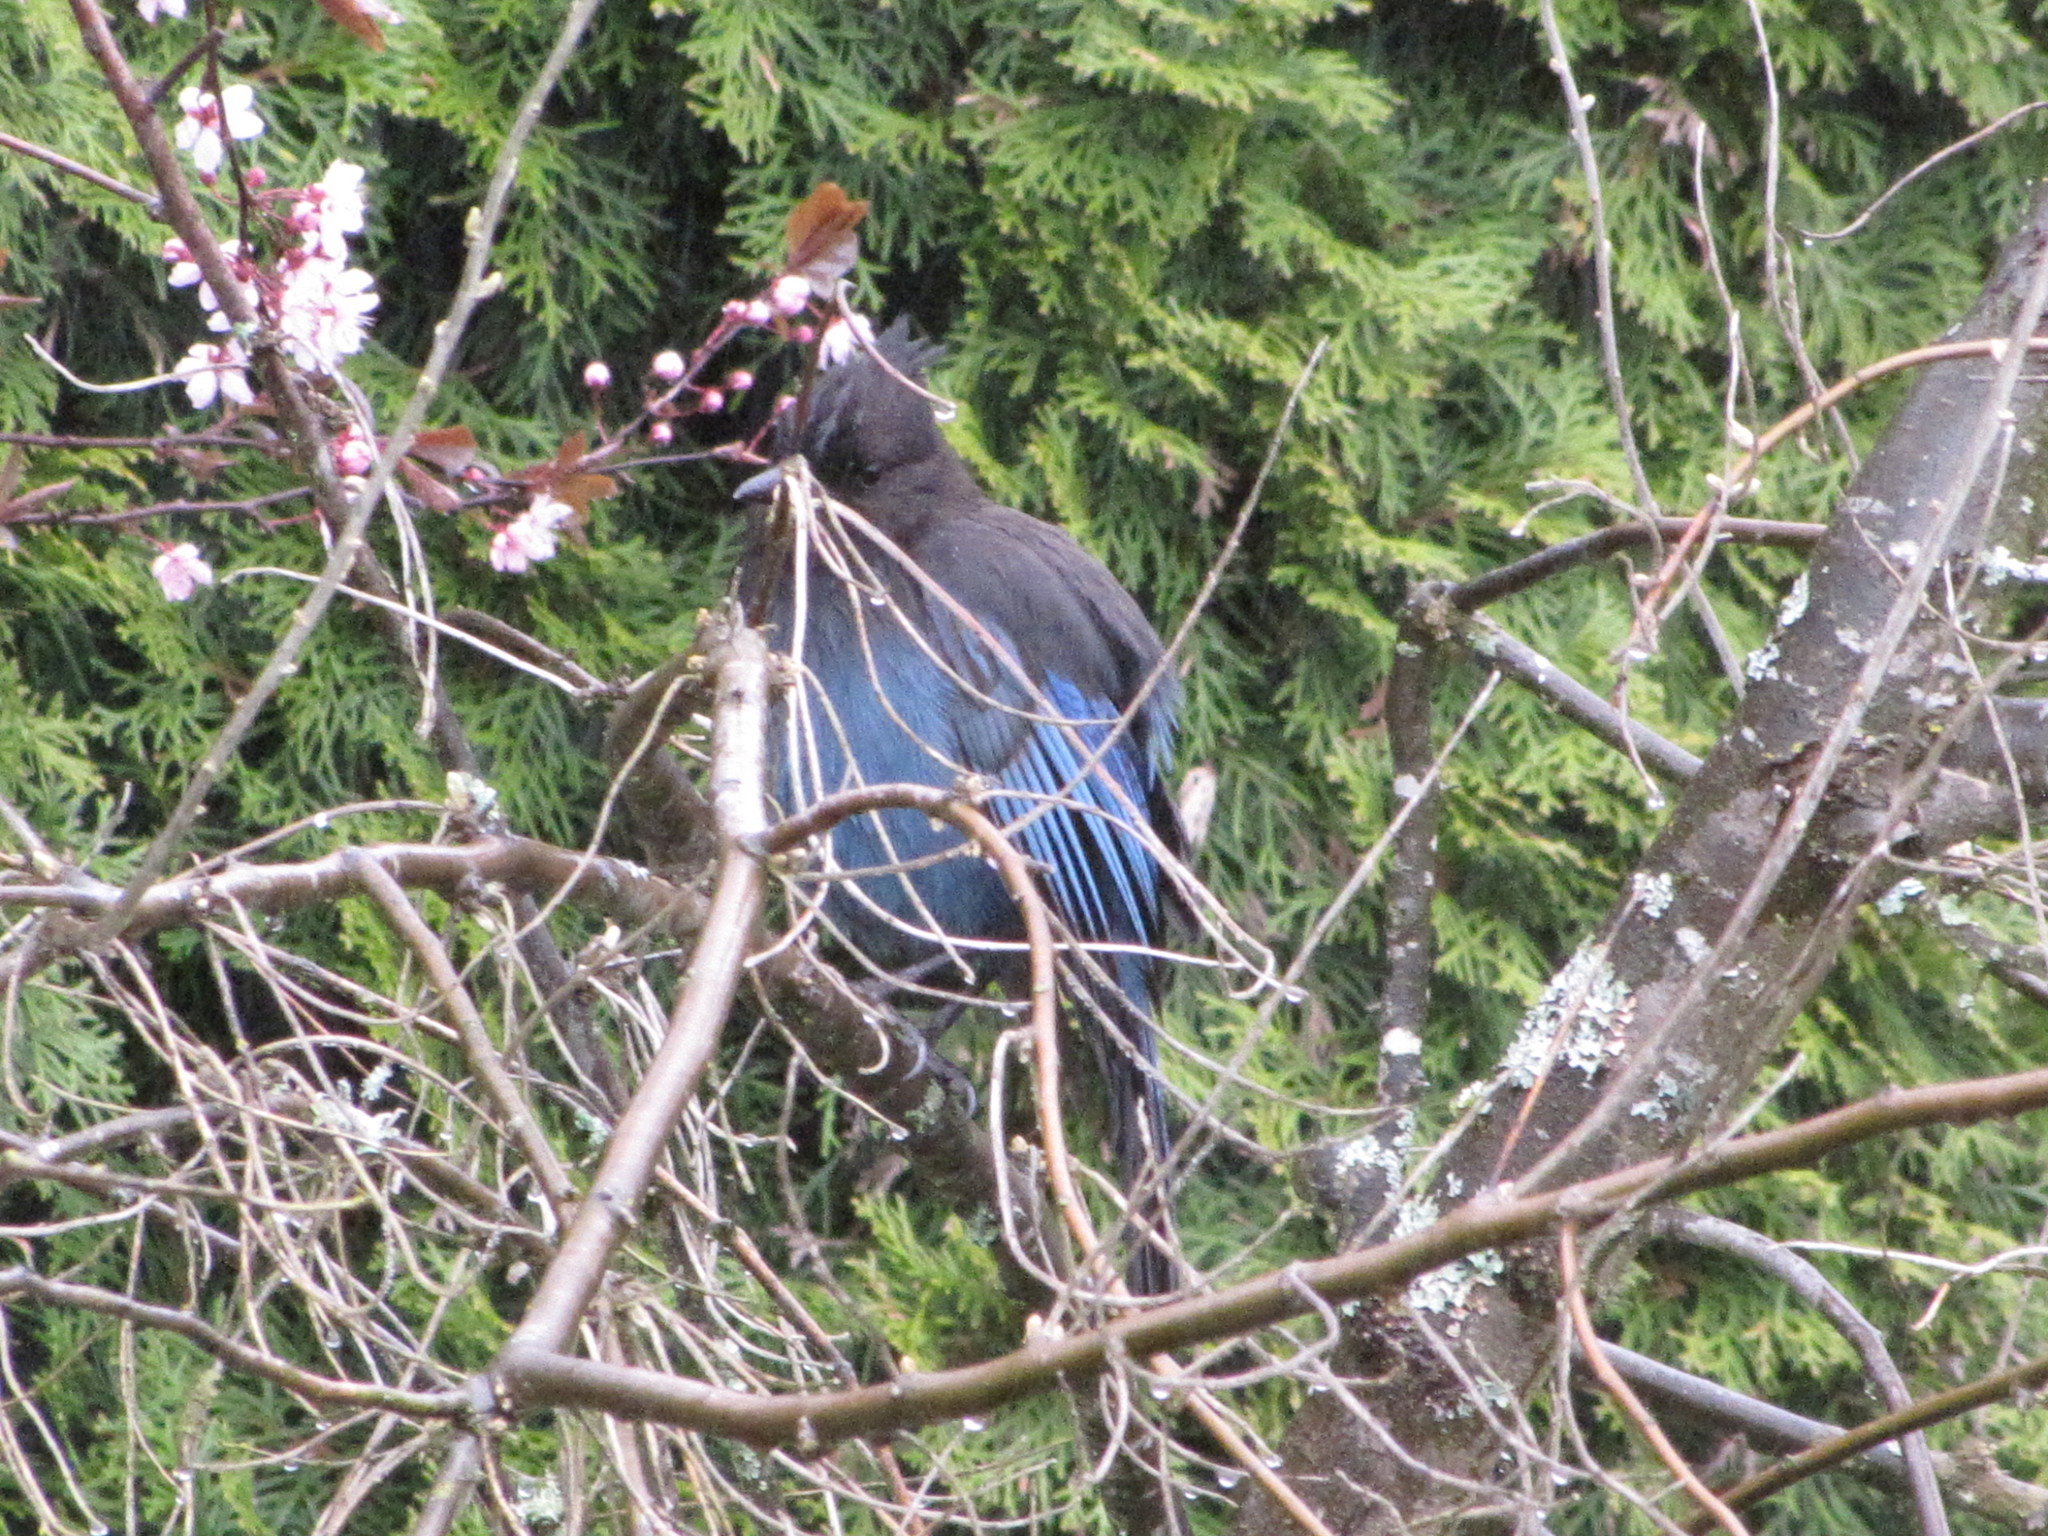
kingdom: Animalia
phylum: Chordata
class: Aves
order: Passeriformes
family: Corvidae
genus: Cyanocitta
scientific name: Cyanocitta stelleri
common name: Steller's jay
